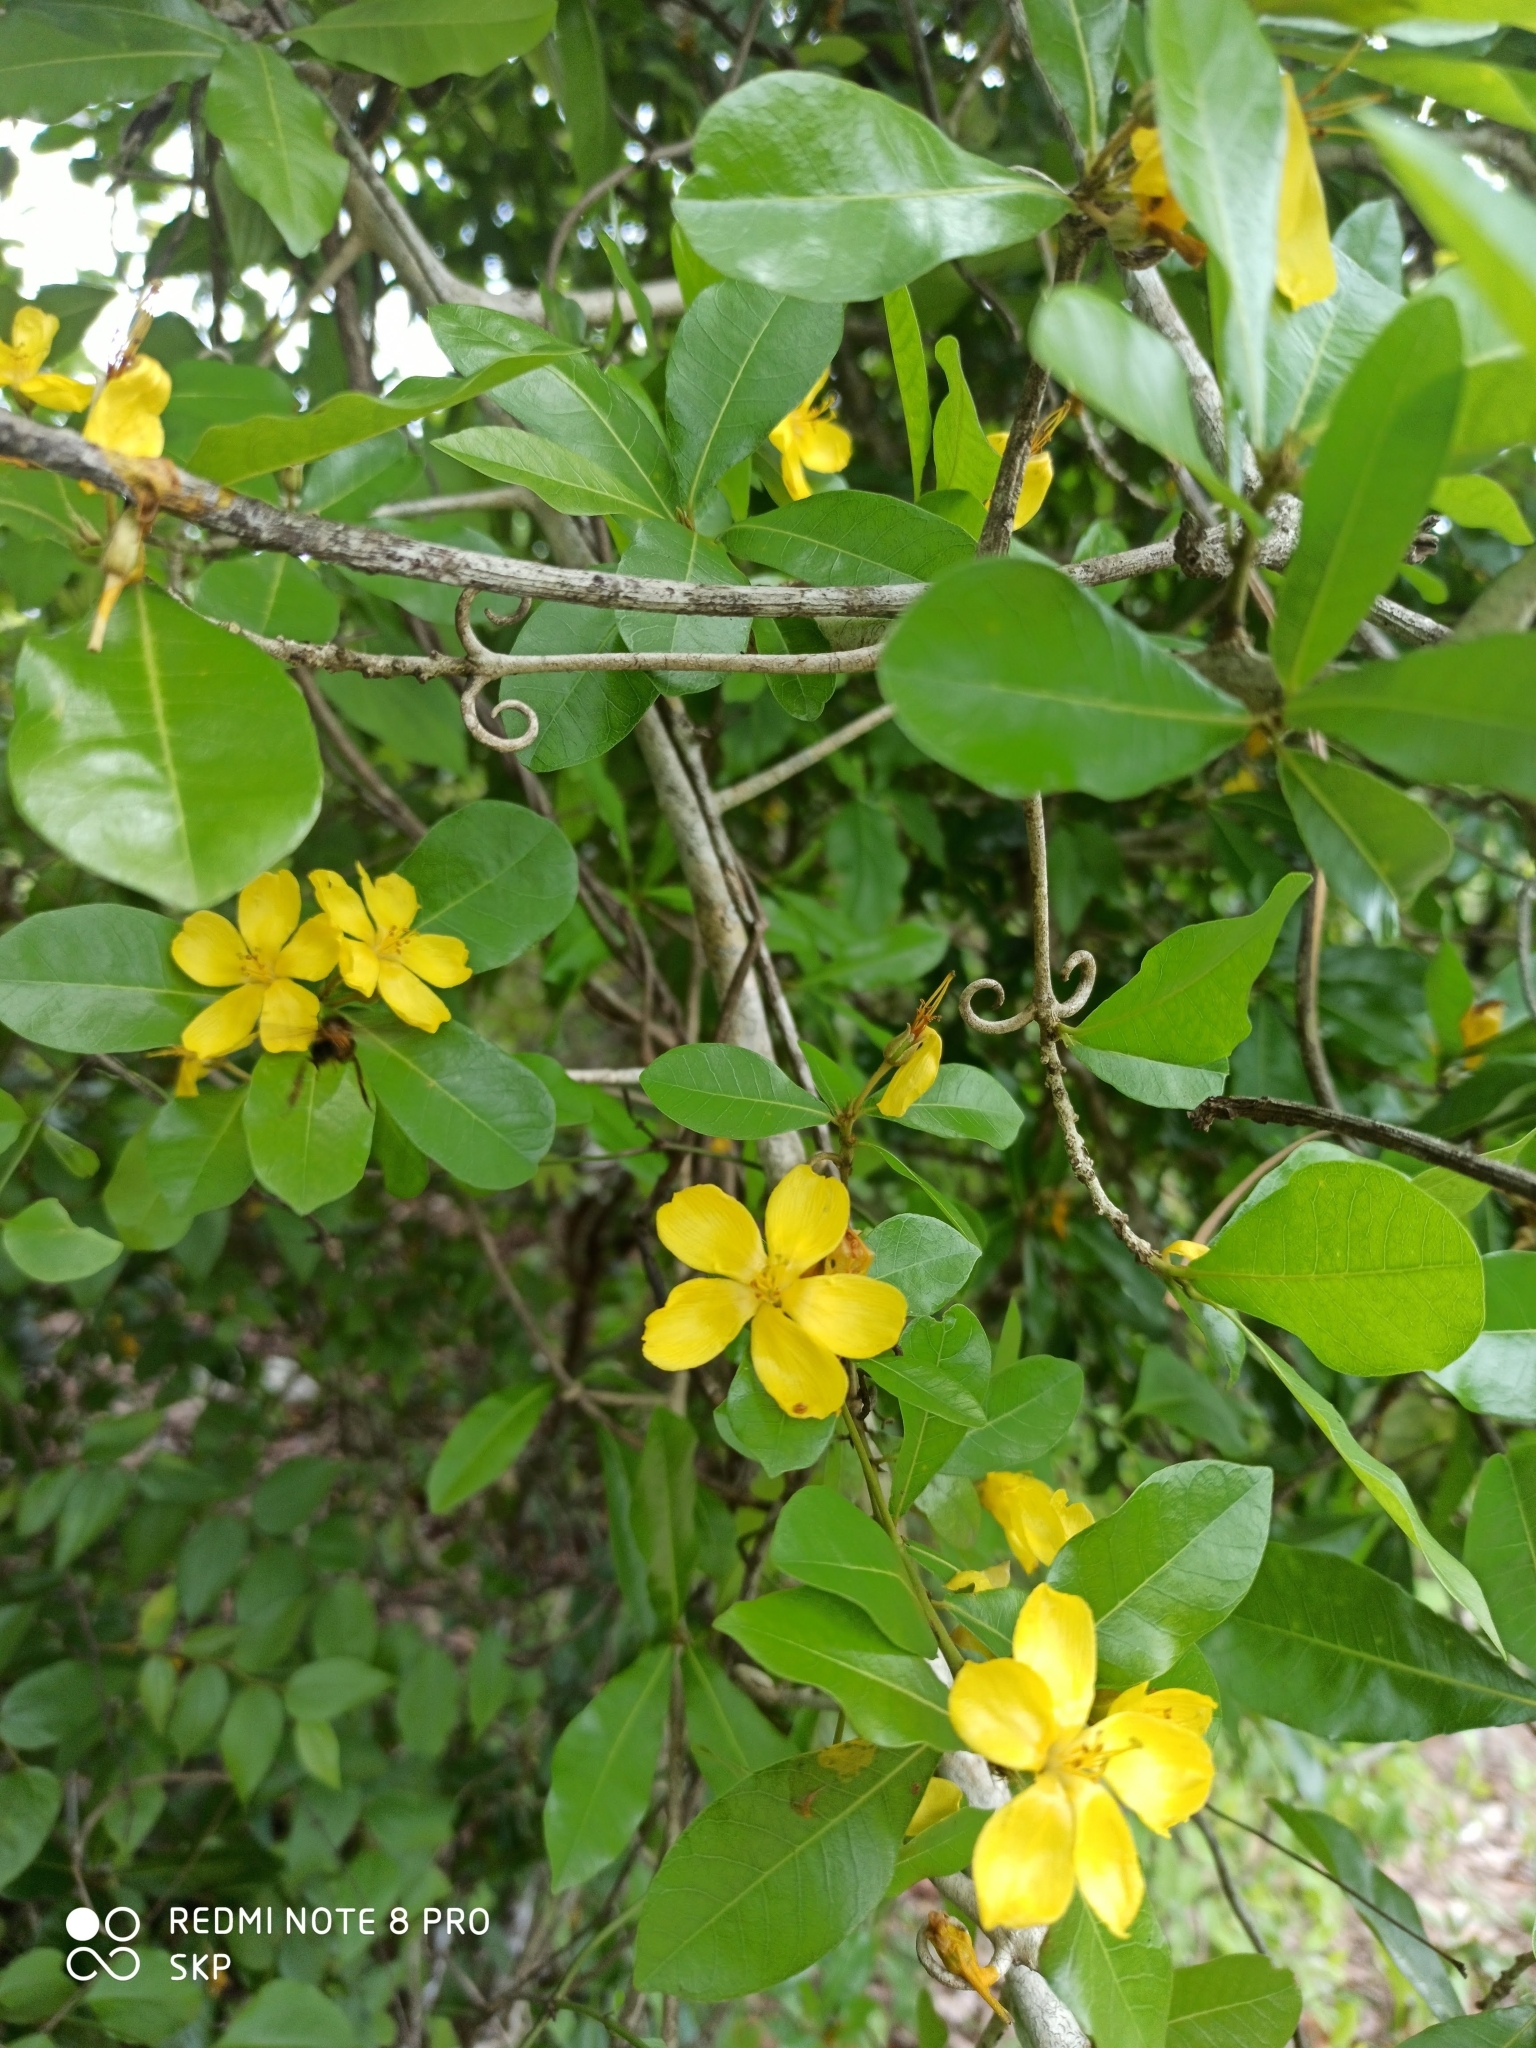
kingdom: Plantae
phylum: Tracheophyta
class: Magnoliopsida
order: Malpighiales
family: Linaceae
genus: Hugonia
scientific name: Hugonia mystax
